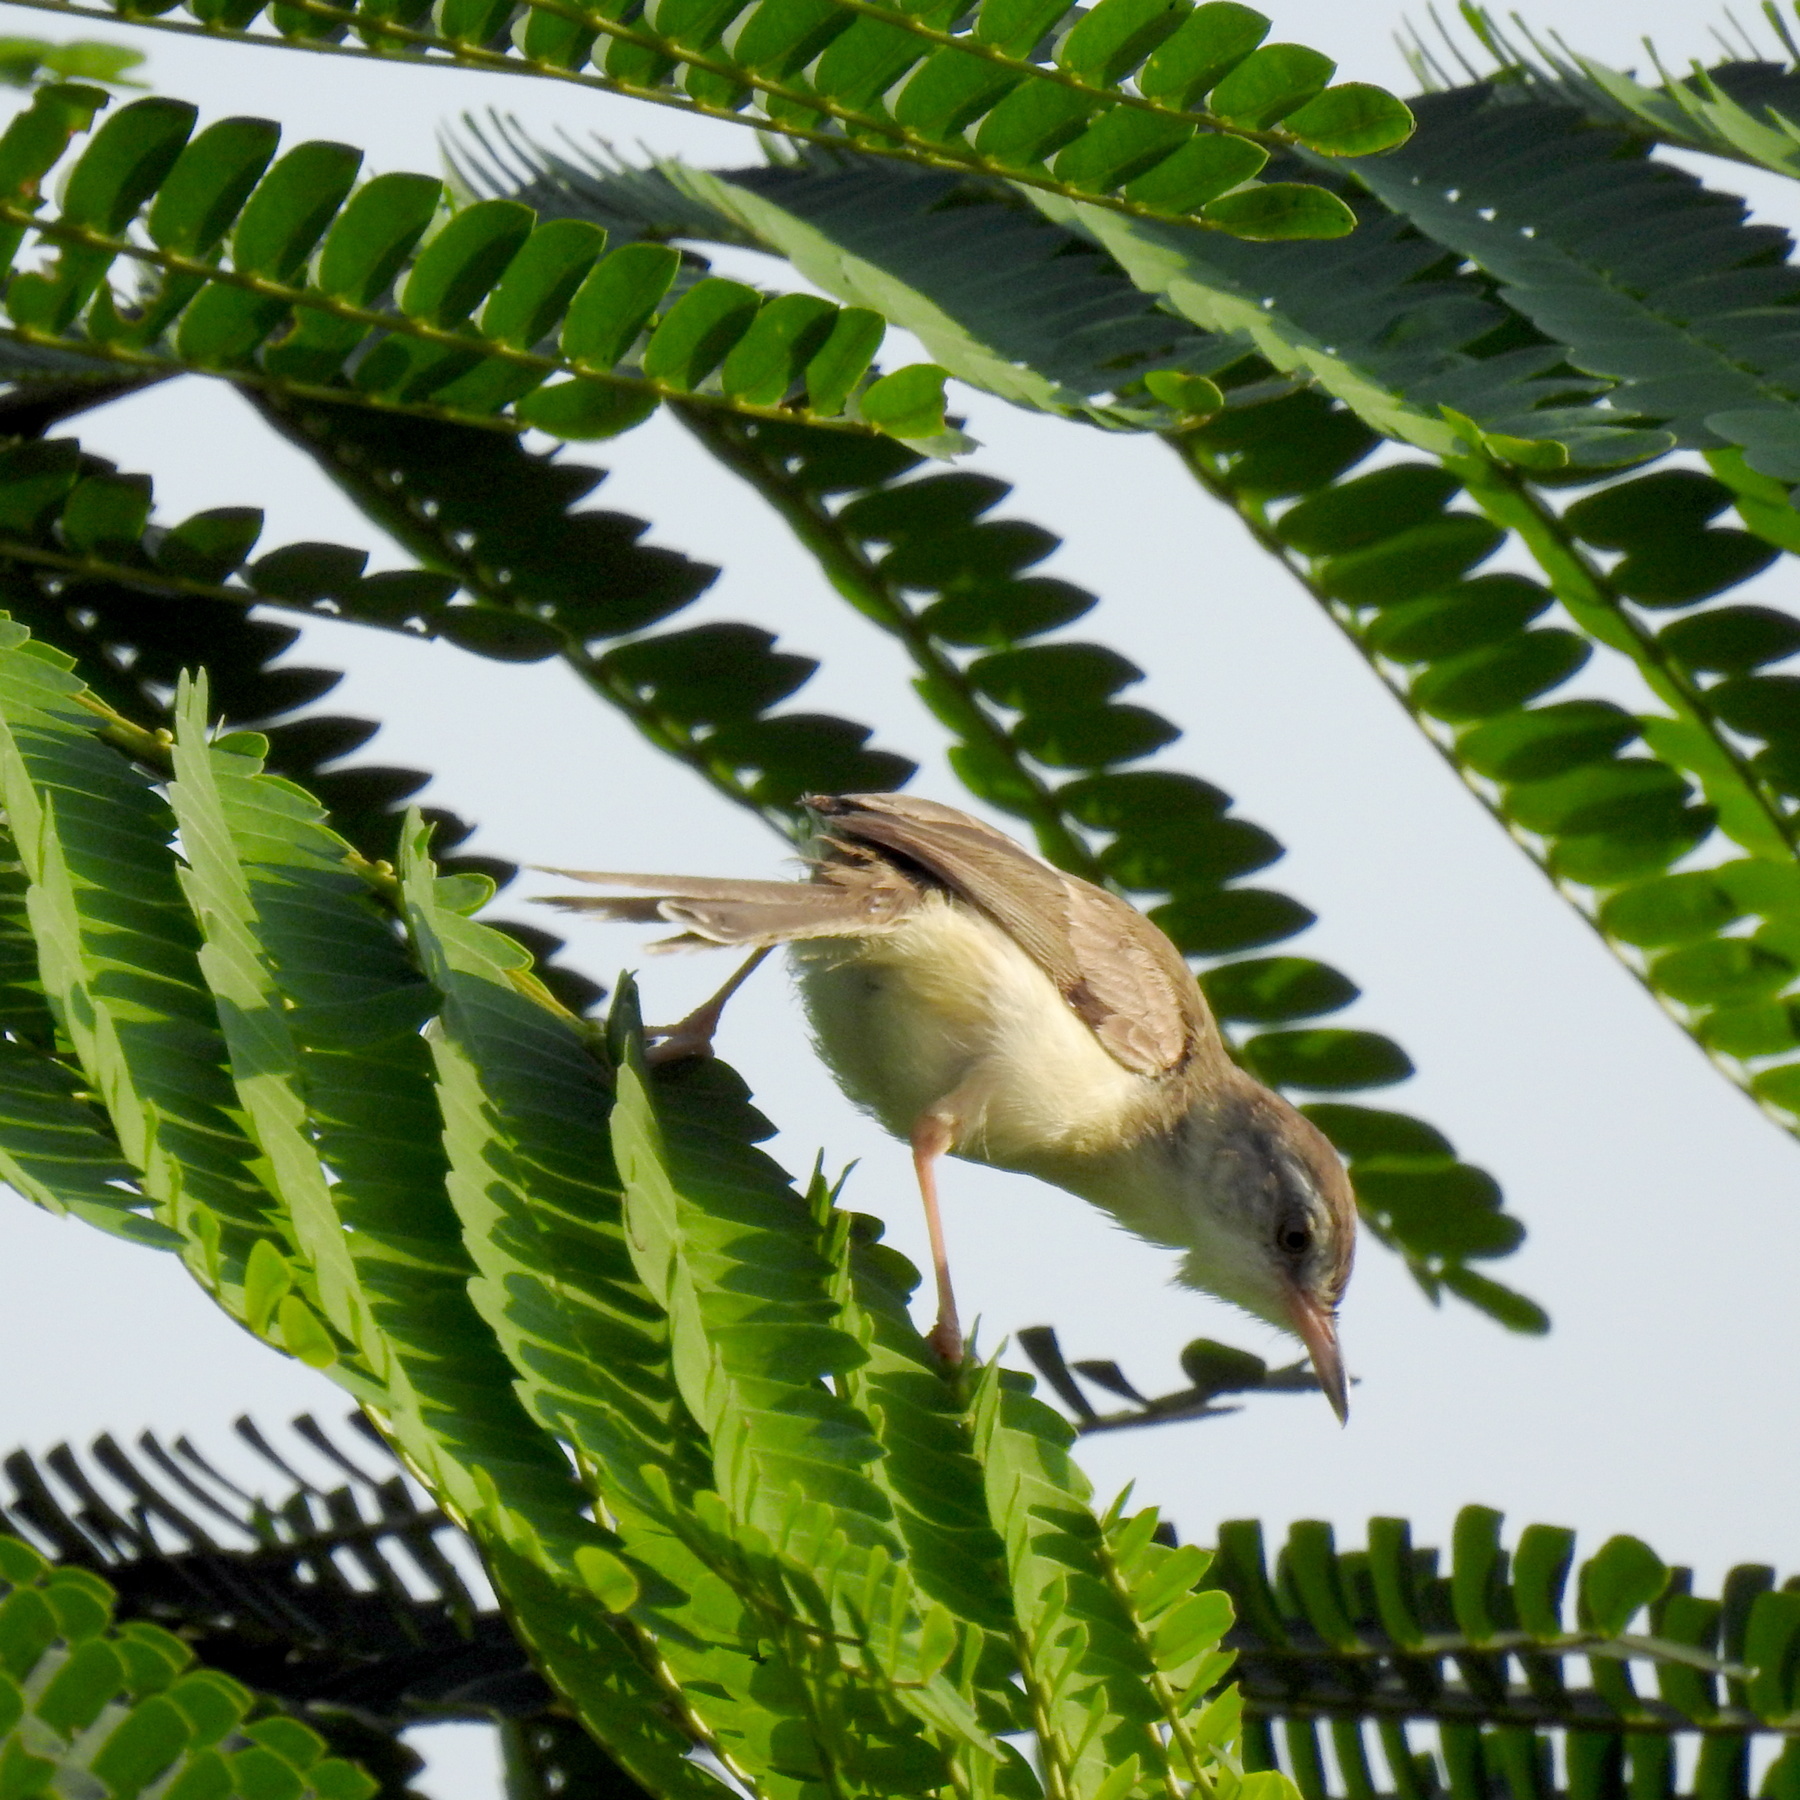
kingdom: Animalia
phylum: Chordata
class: Aves
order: Passeriformes
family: Cisticolidae
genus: Prinia
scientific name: Prinia inornata
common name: Plain prinia
